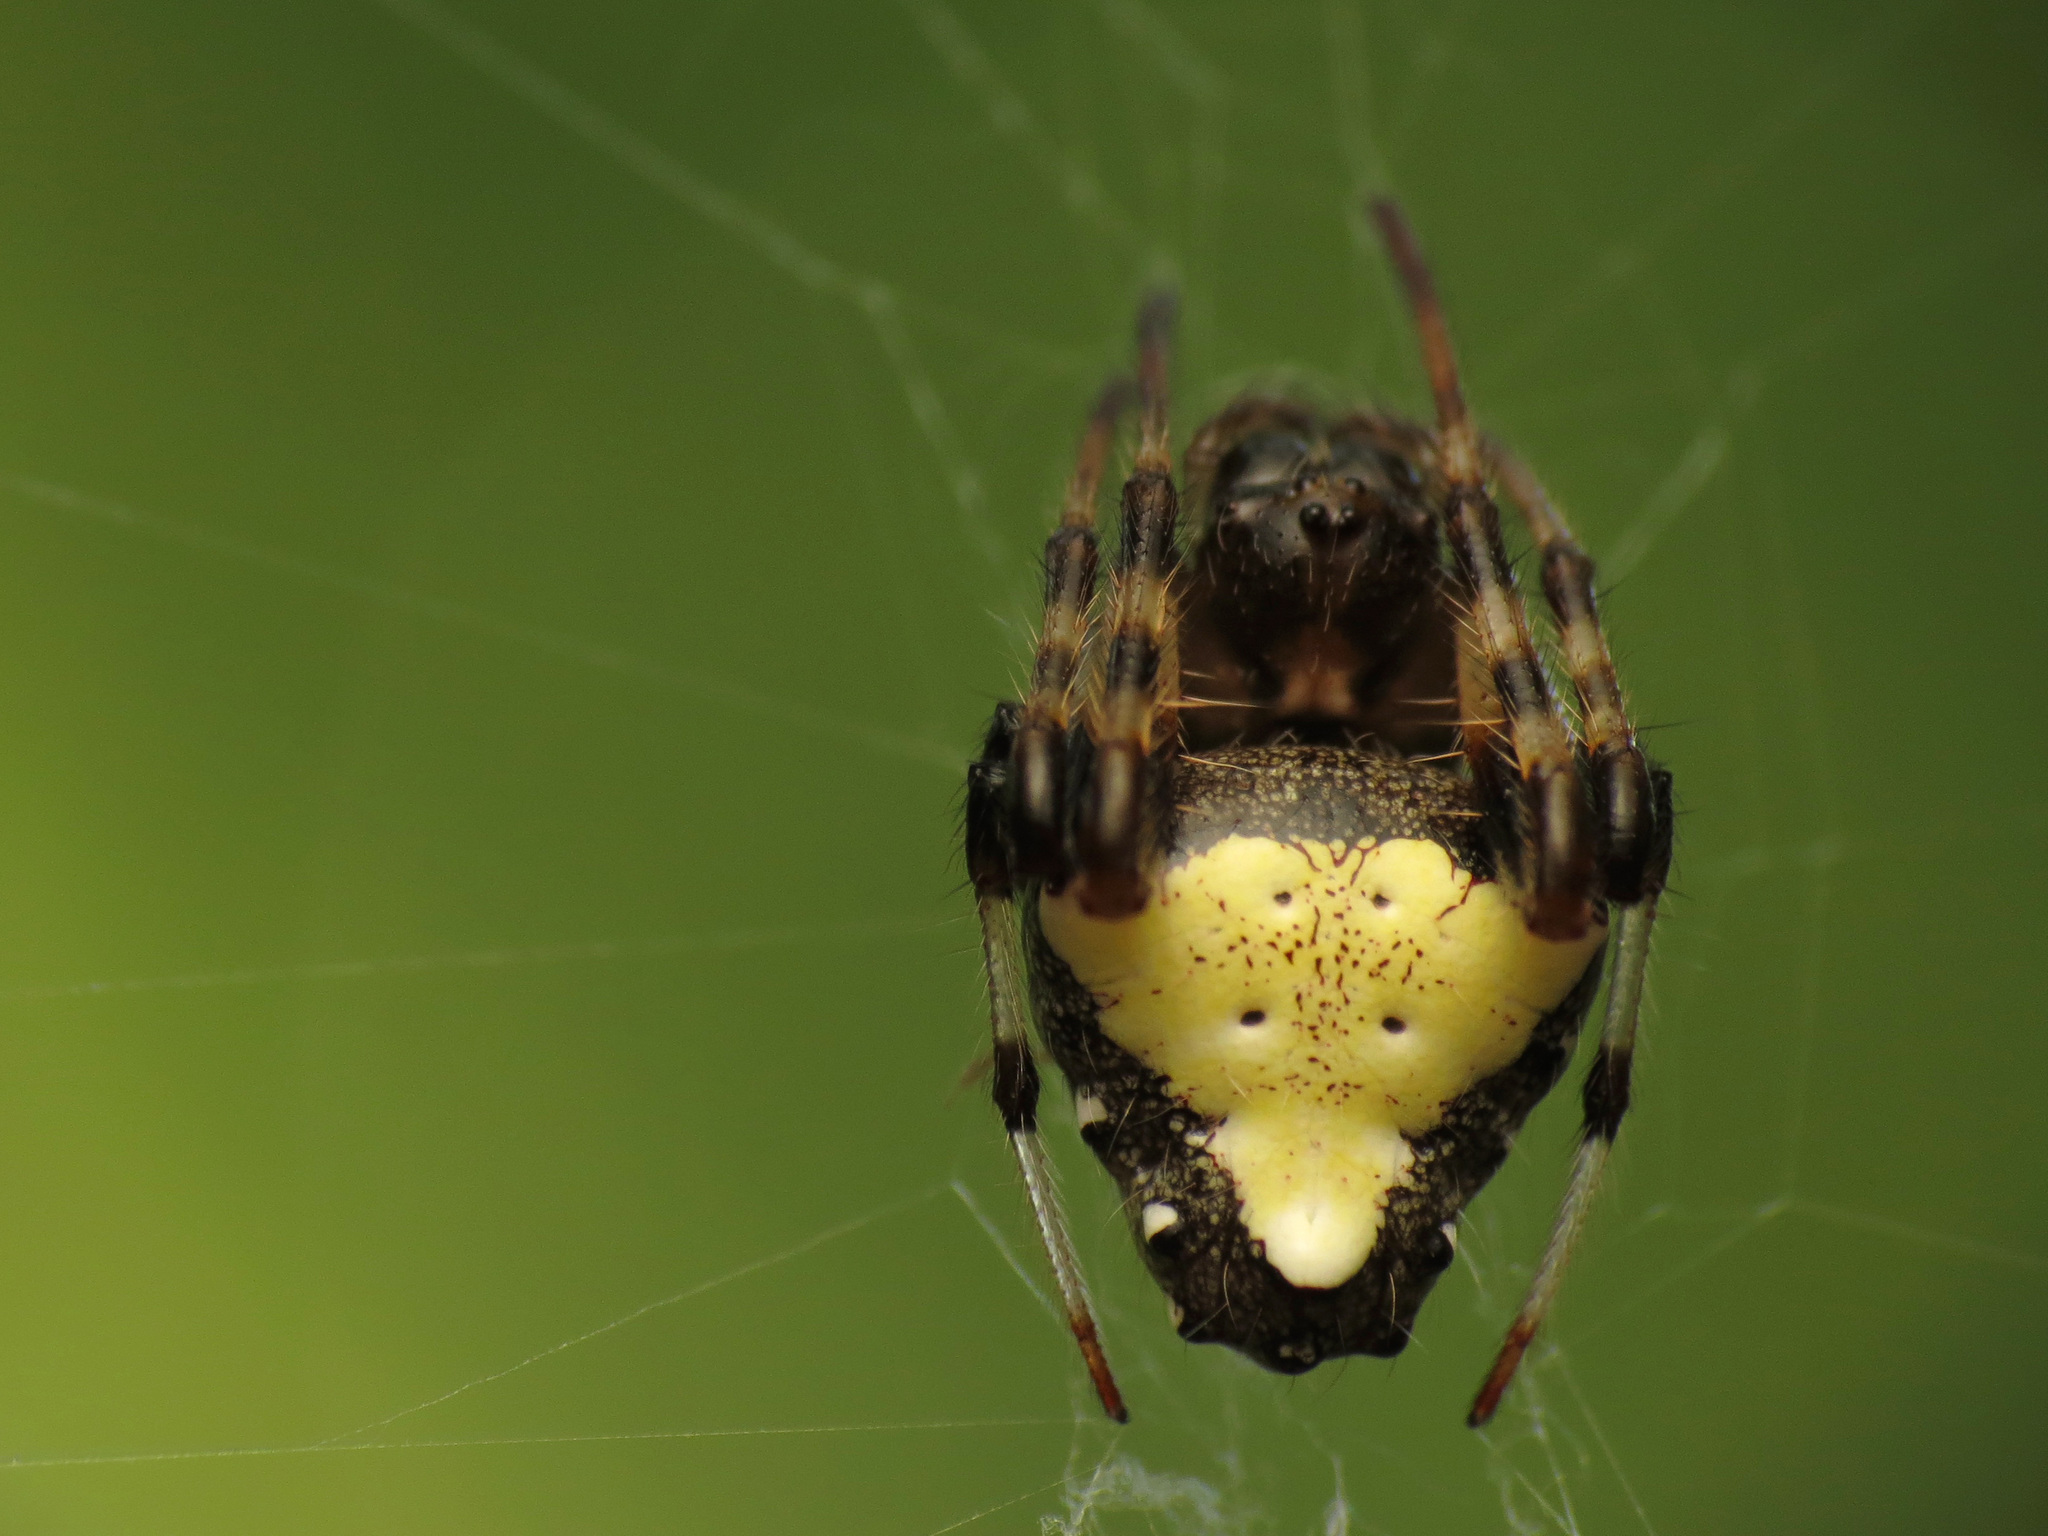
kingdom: Animalia
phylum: Arthropoda
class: Arachnida
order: Araneae
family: Araneidae
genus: Verrucosa
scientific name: Verrucosa arenata
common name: Orb weavers
